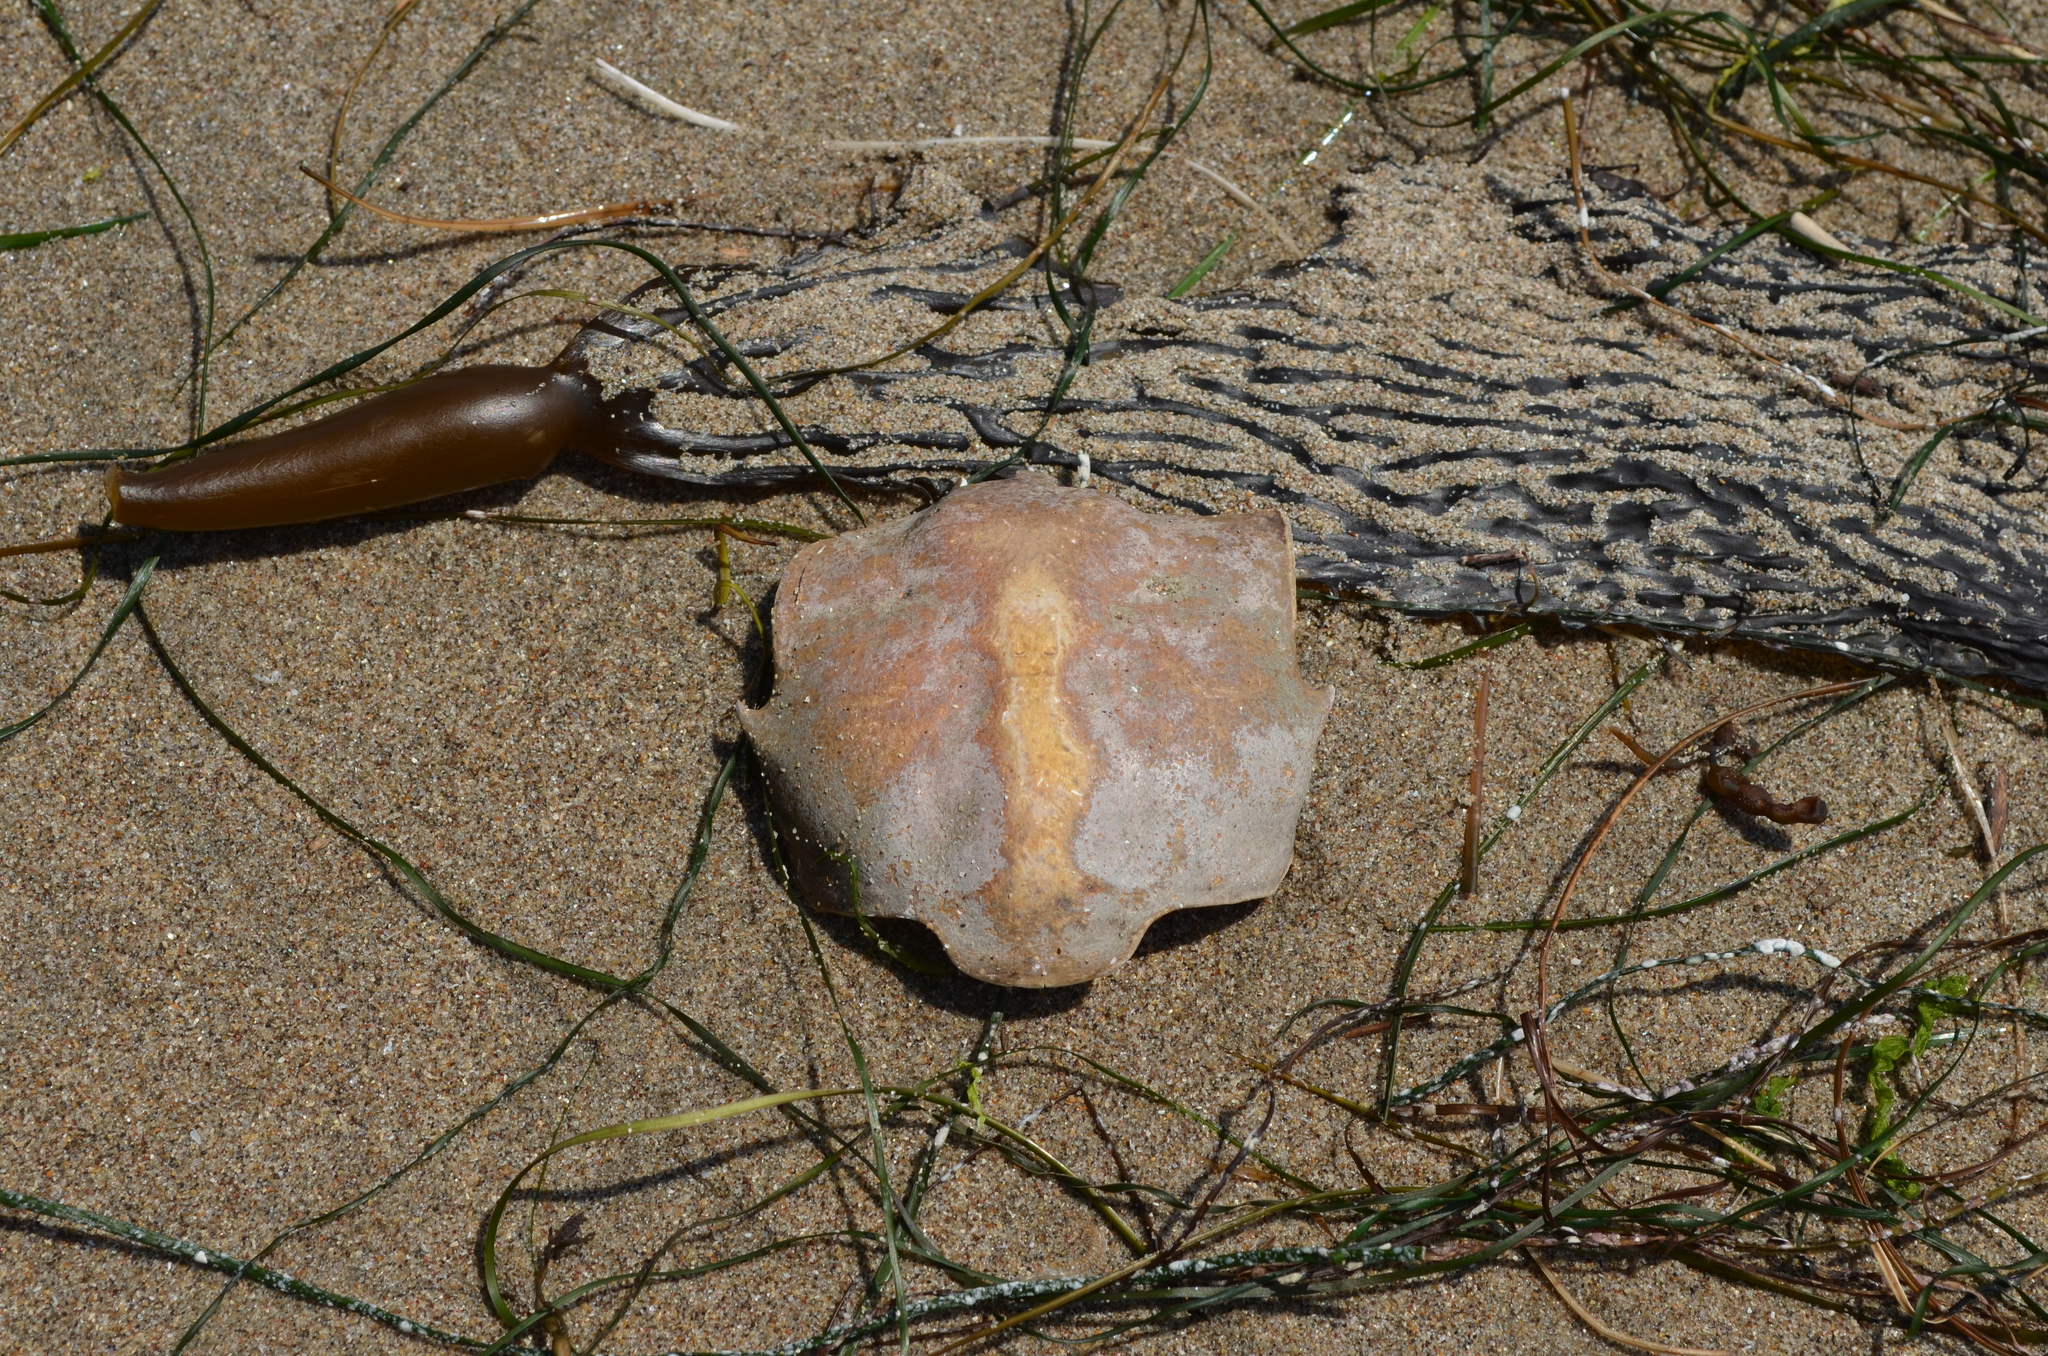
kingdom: Animalia
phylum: Arthropoda
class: Malacostraca
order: Decapoda
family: Epialtidae
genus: Pugettia
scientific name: Pugettia producta
